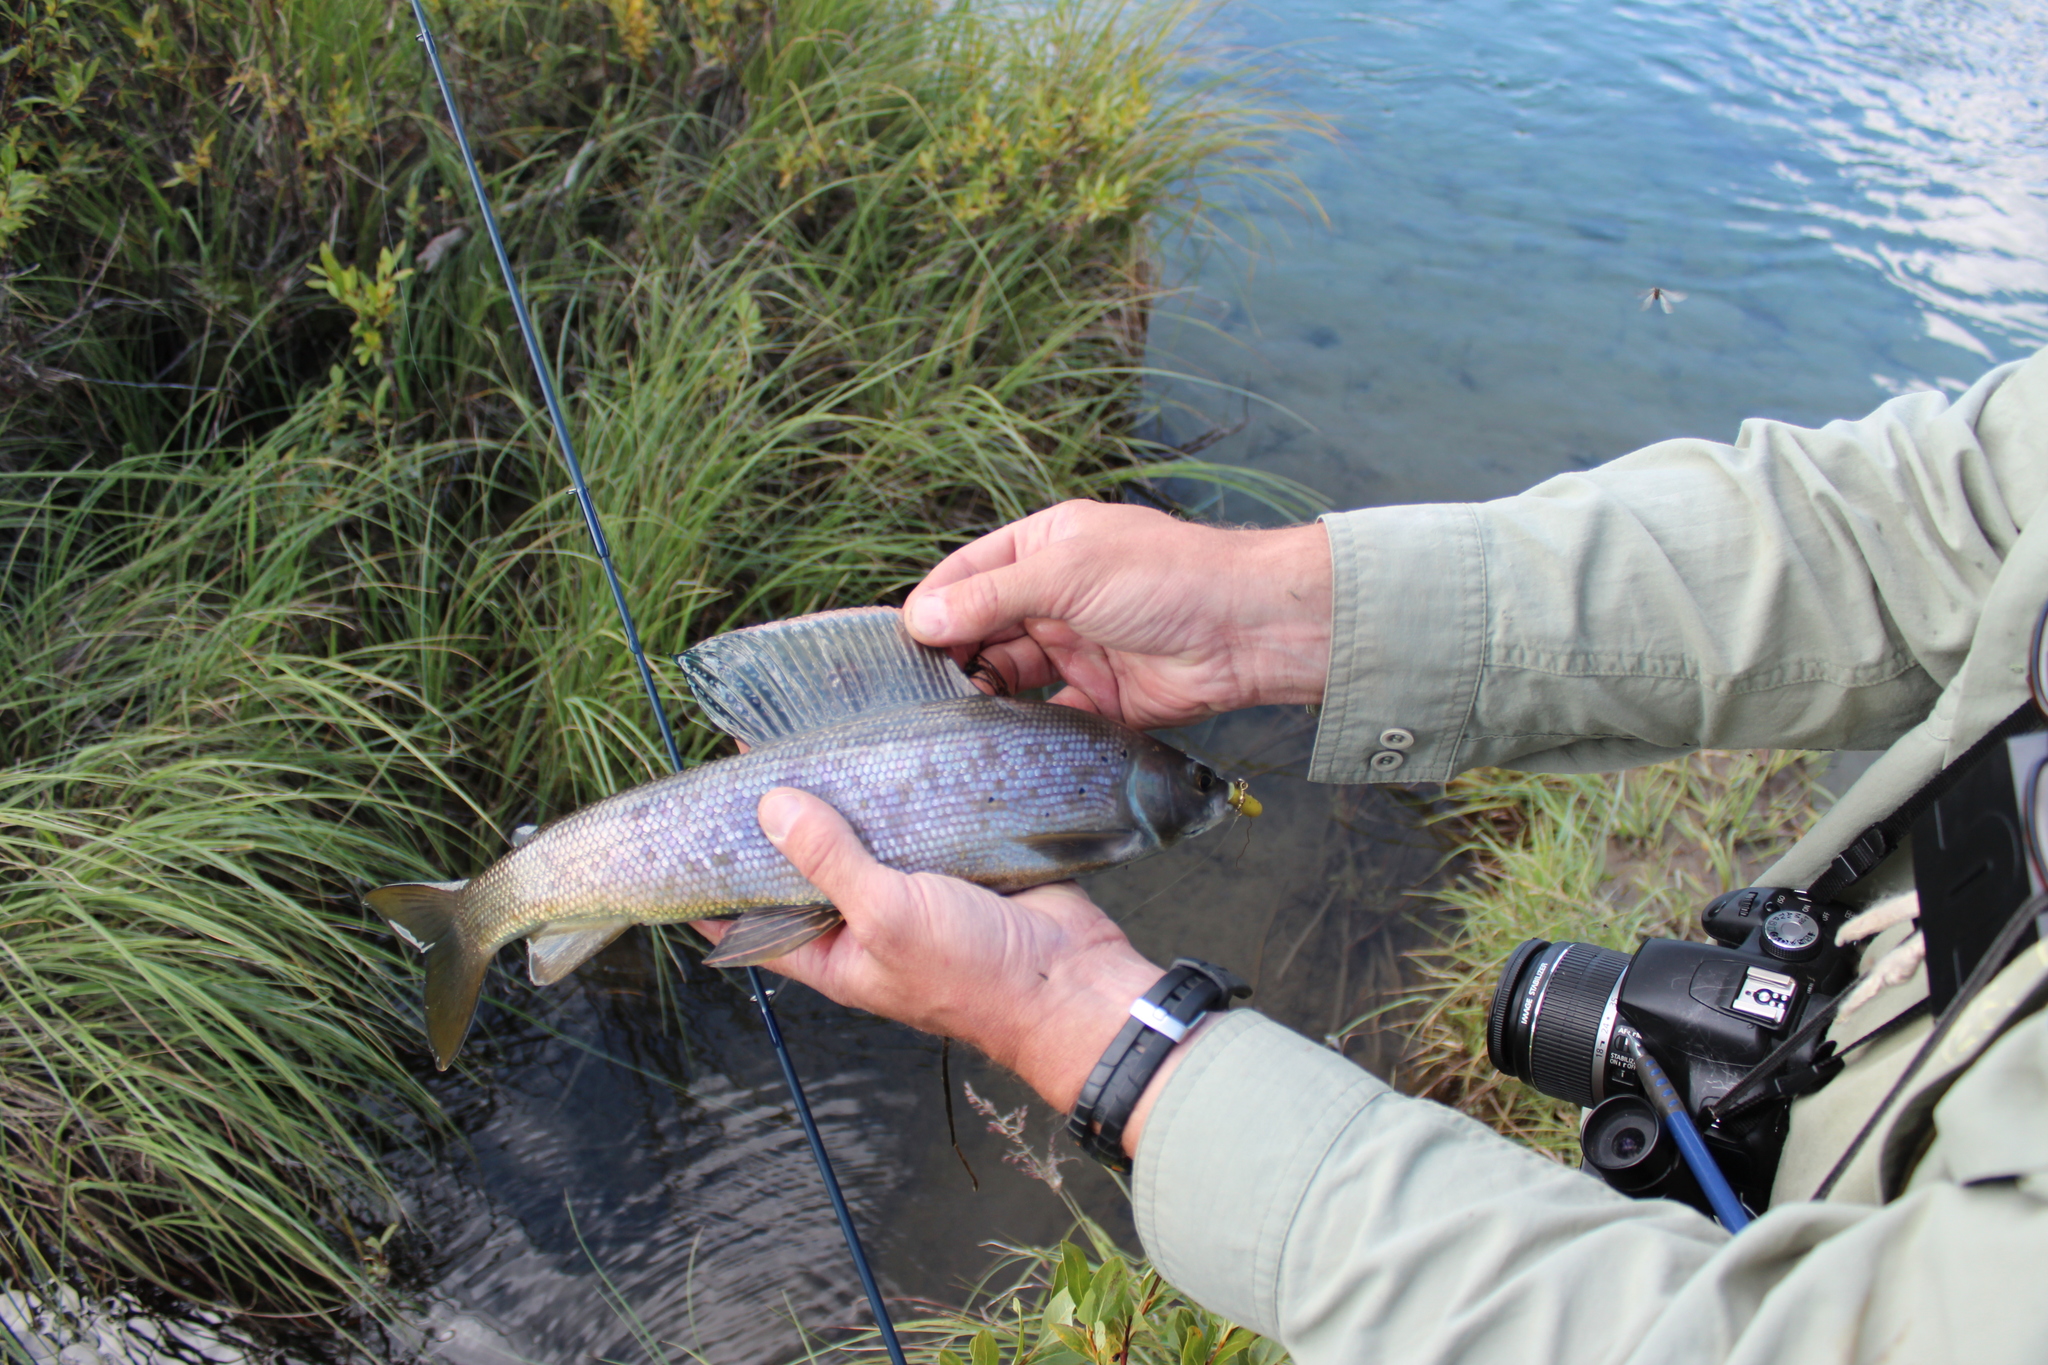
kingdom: Animalia
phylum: Chordata
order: Salmoniformes
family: Salmonidae
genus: Thymallus
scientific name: Thymallus arcticus
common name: Arctic grayling
